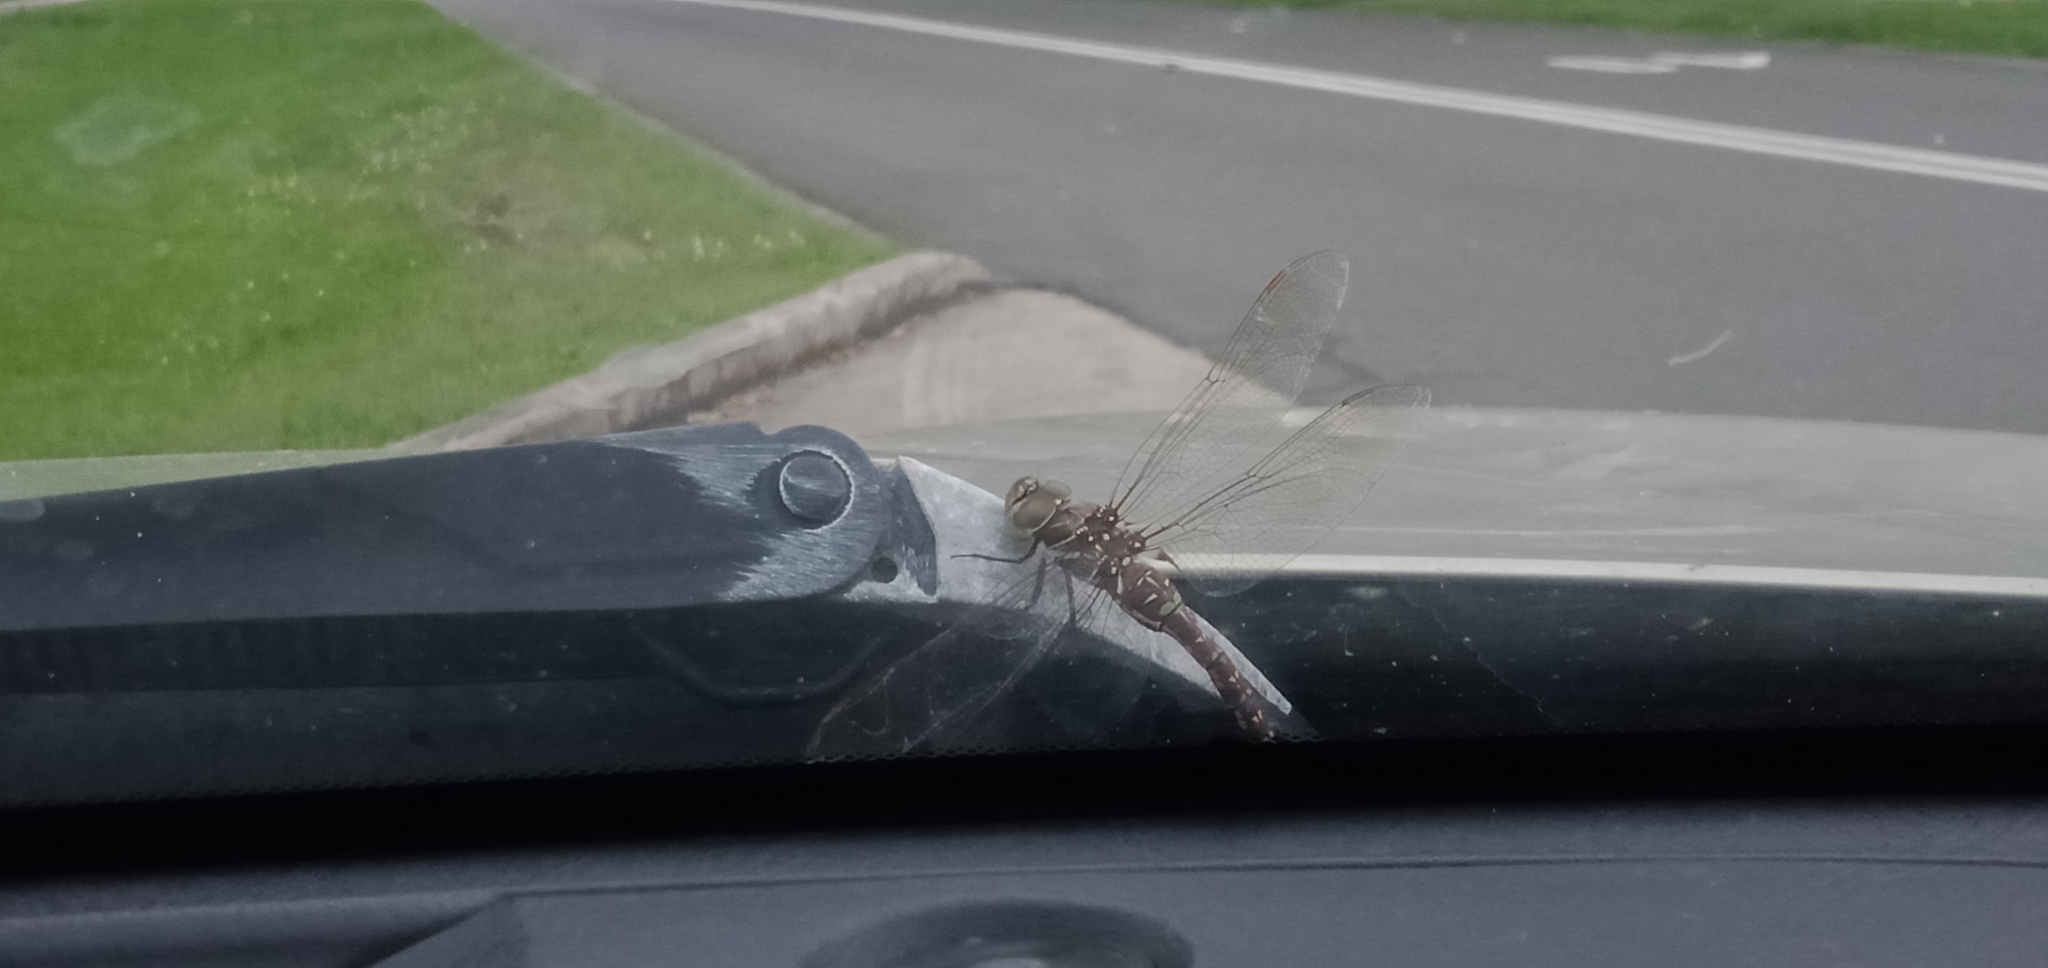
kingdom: Animalia
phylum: Arthropoda
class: Insecta
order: Odonata
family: Aeshnidae
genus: Aeshna
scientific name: Aeshna brevistyla
